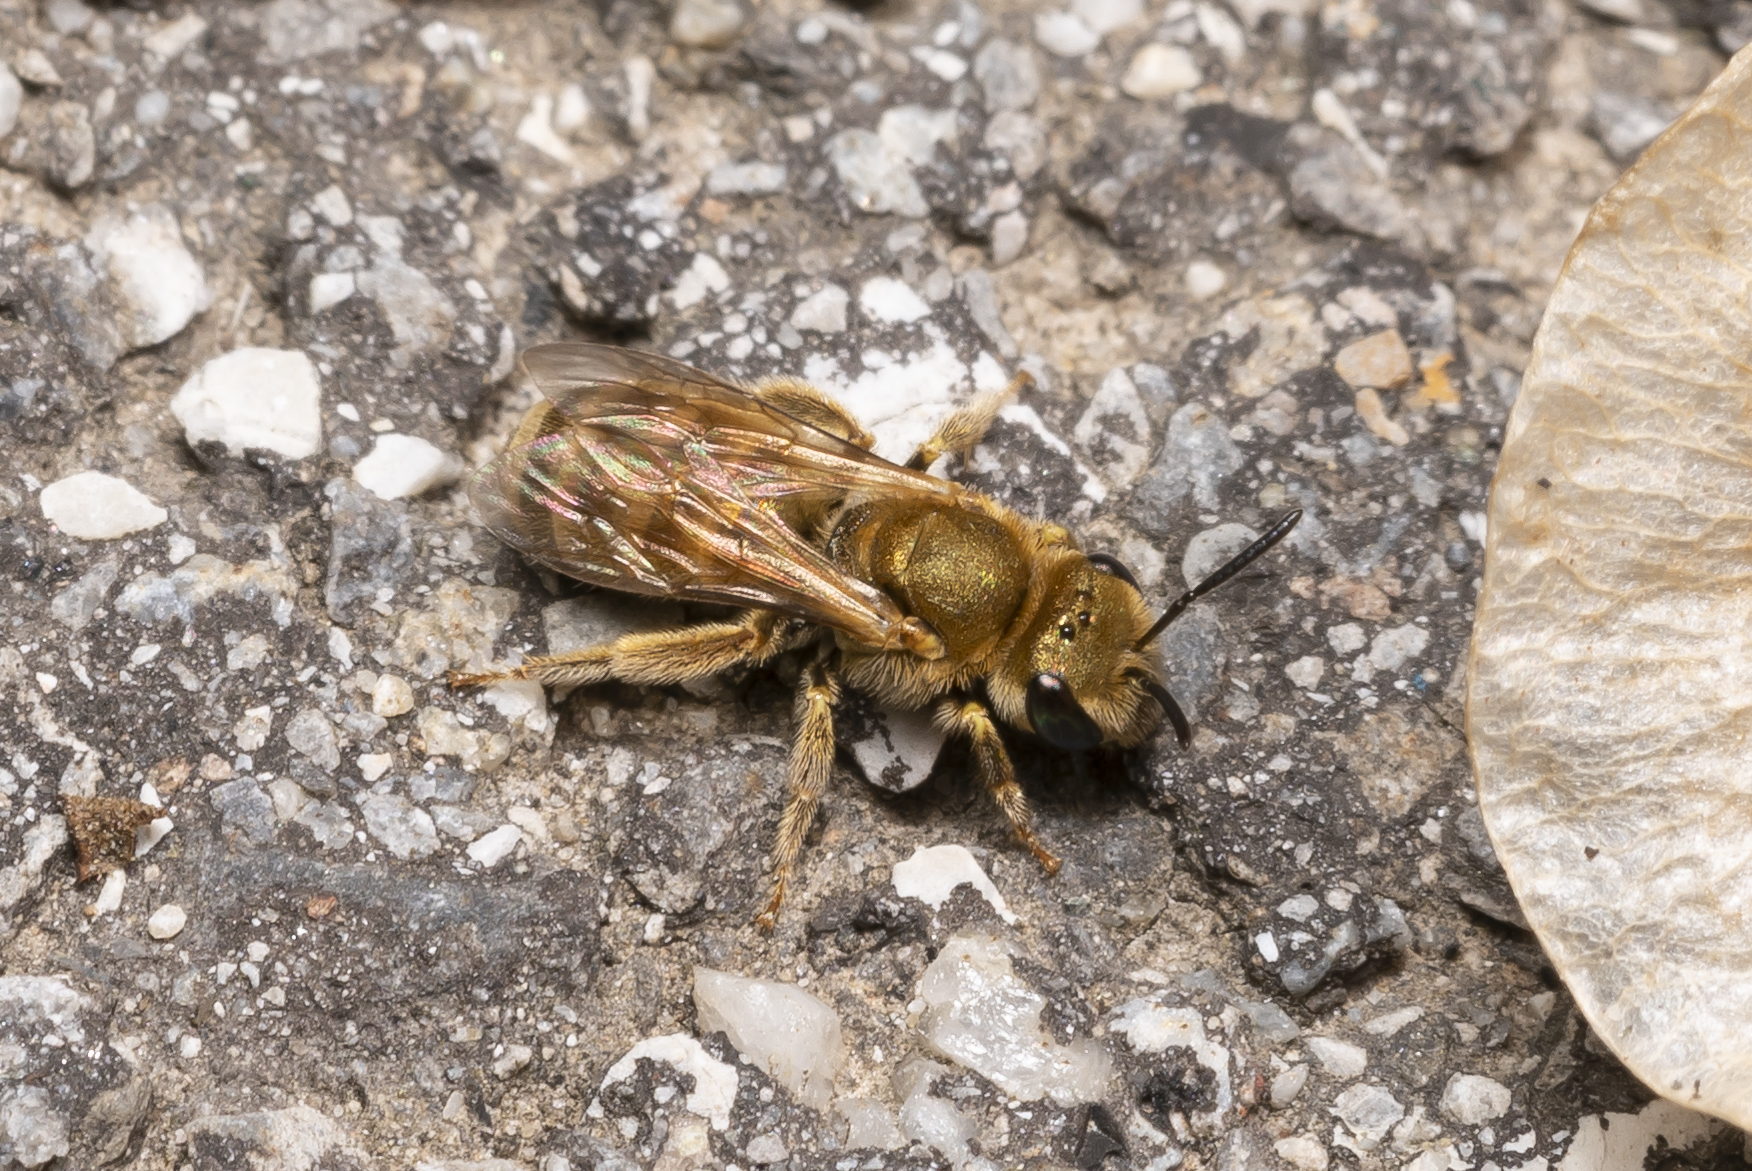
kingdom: Animalia
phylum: Arthropoda
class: Insecta
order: Hymenoptera
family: Halictidae
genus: Halictus
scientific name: Halictus subauratus
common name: Golden furrow bee
